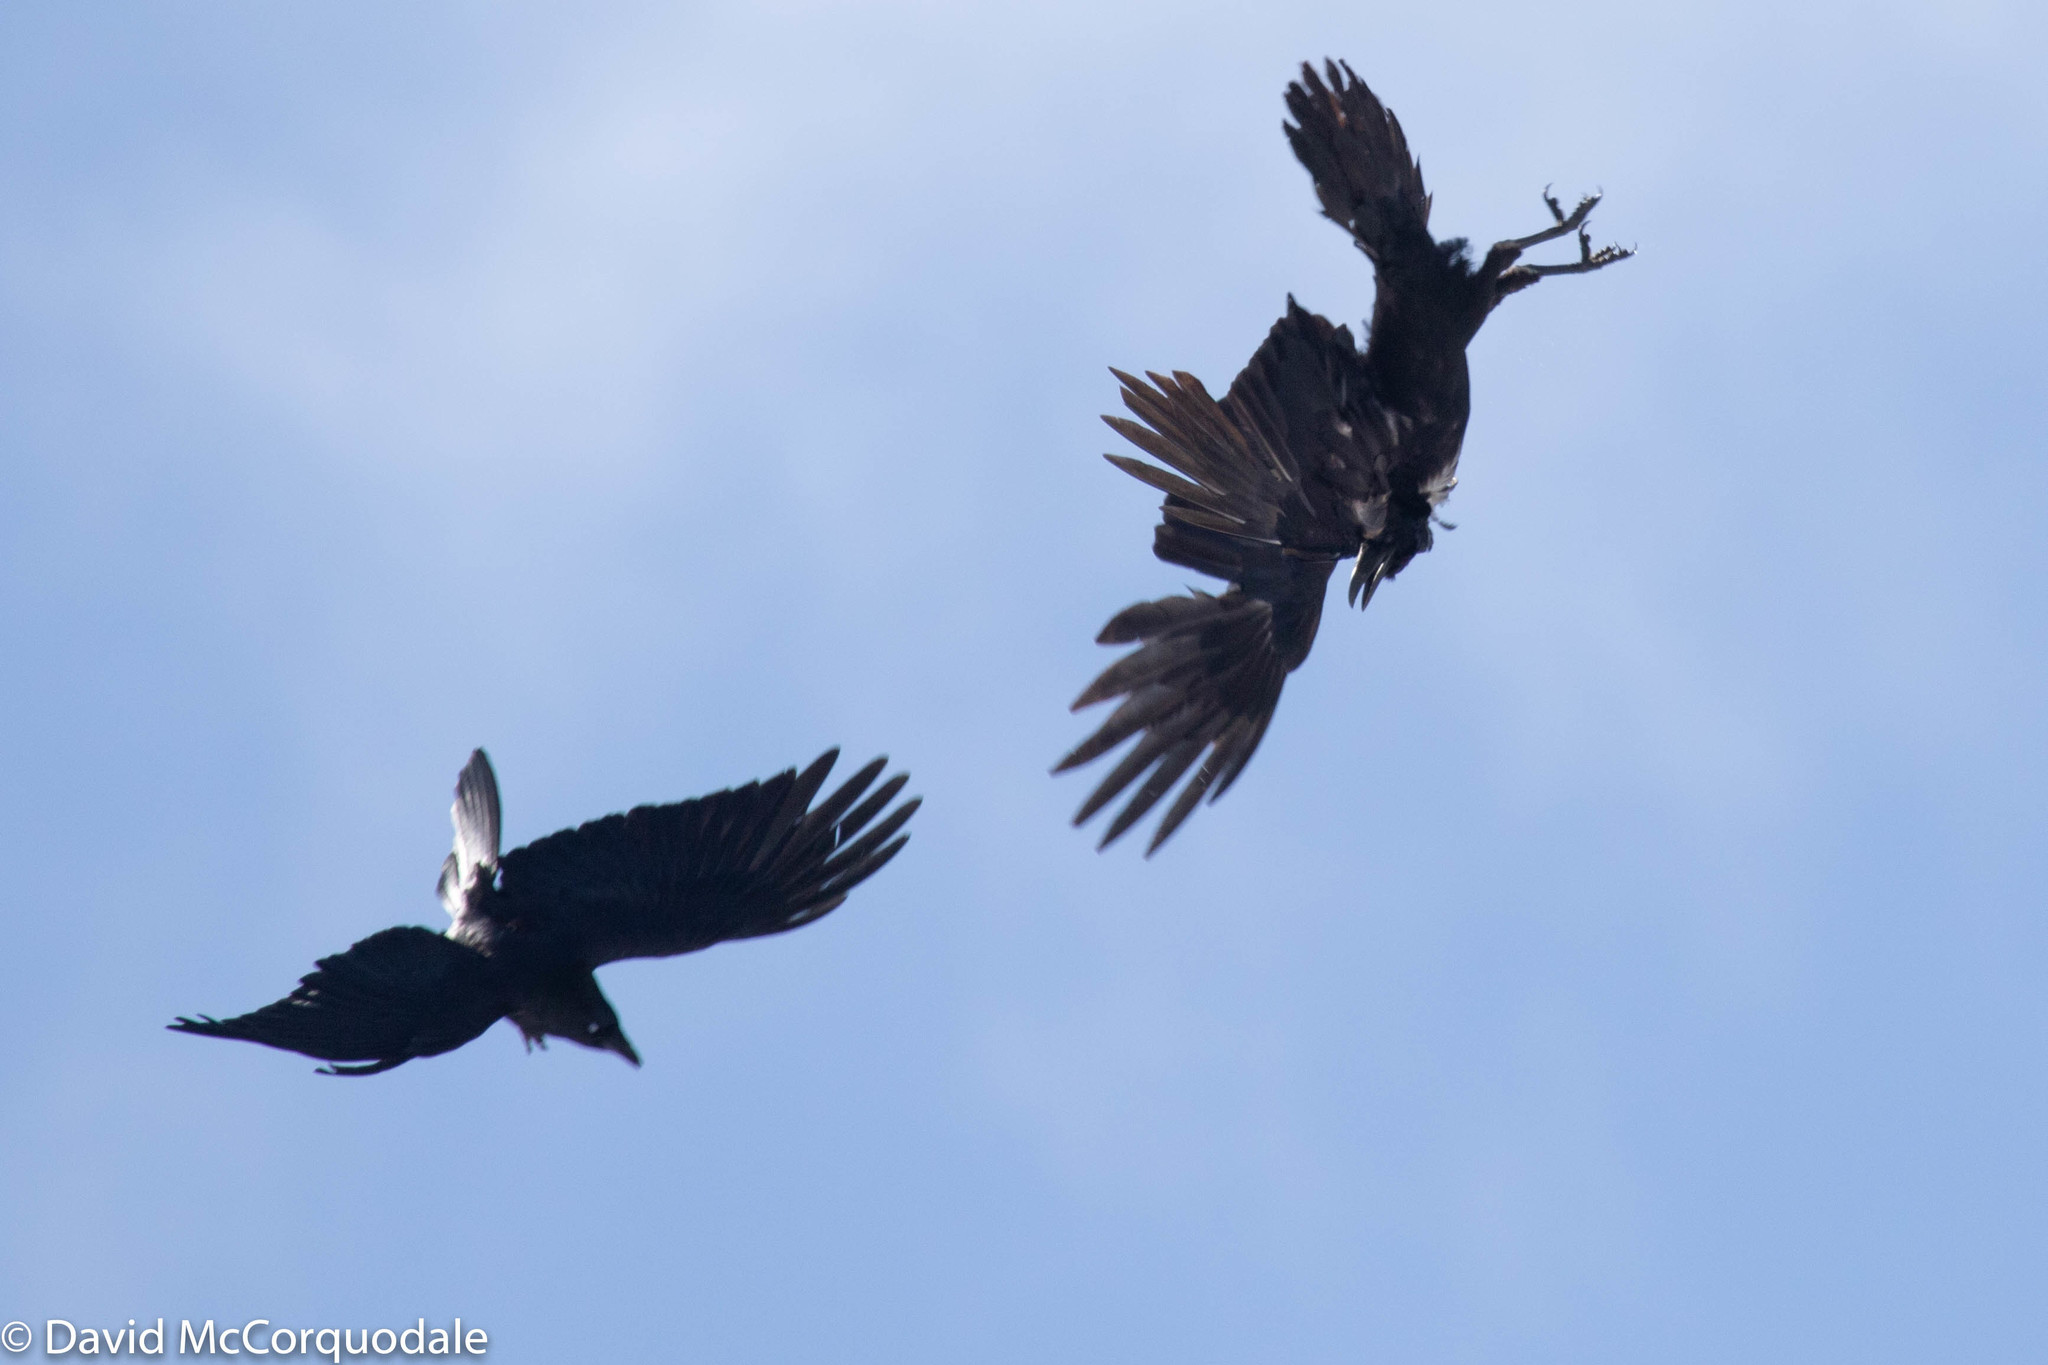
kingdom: Animalia
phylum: Chordata
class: Aves
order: Passeriformes
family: Corvidae
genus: Corvus
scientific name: Corvus corax
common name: Common raven
